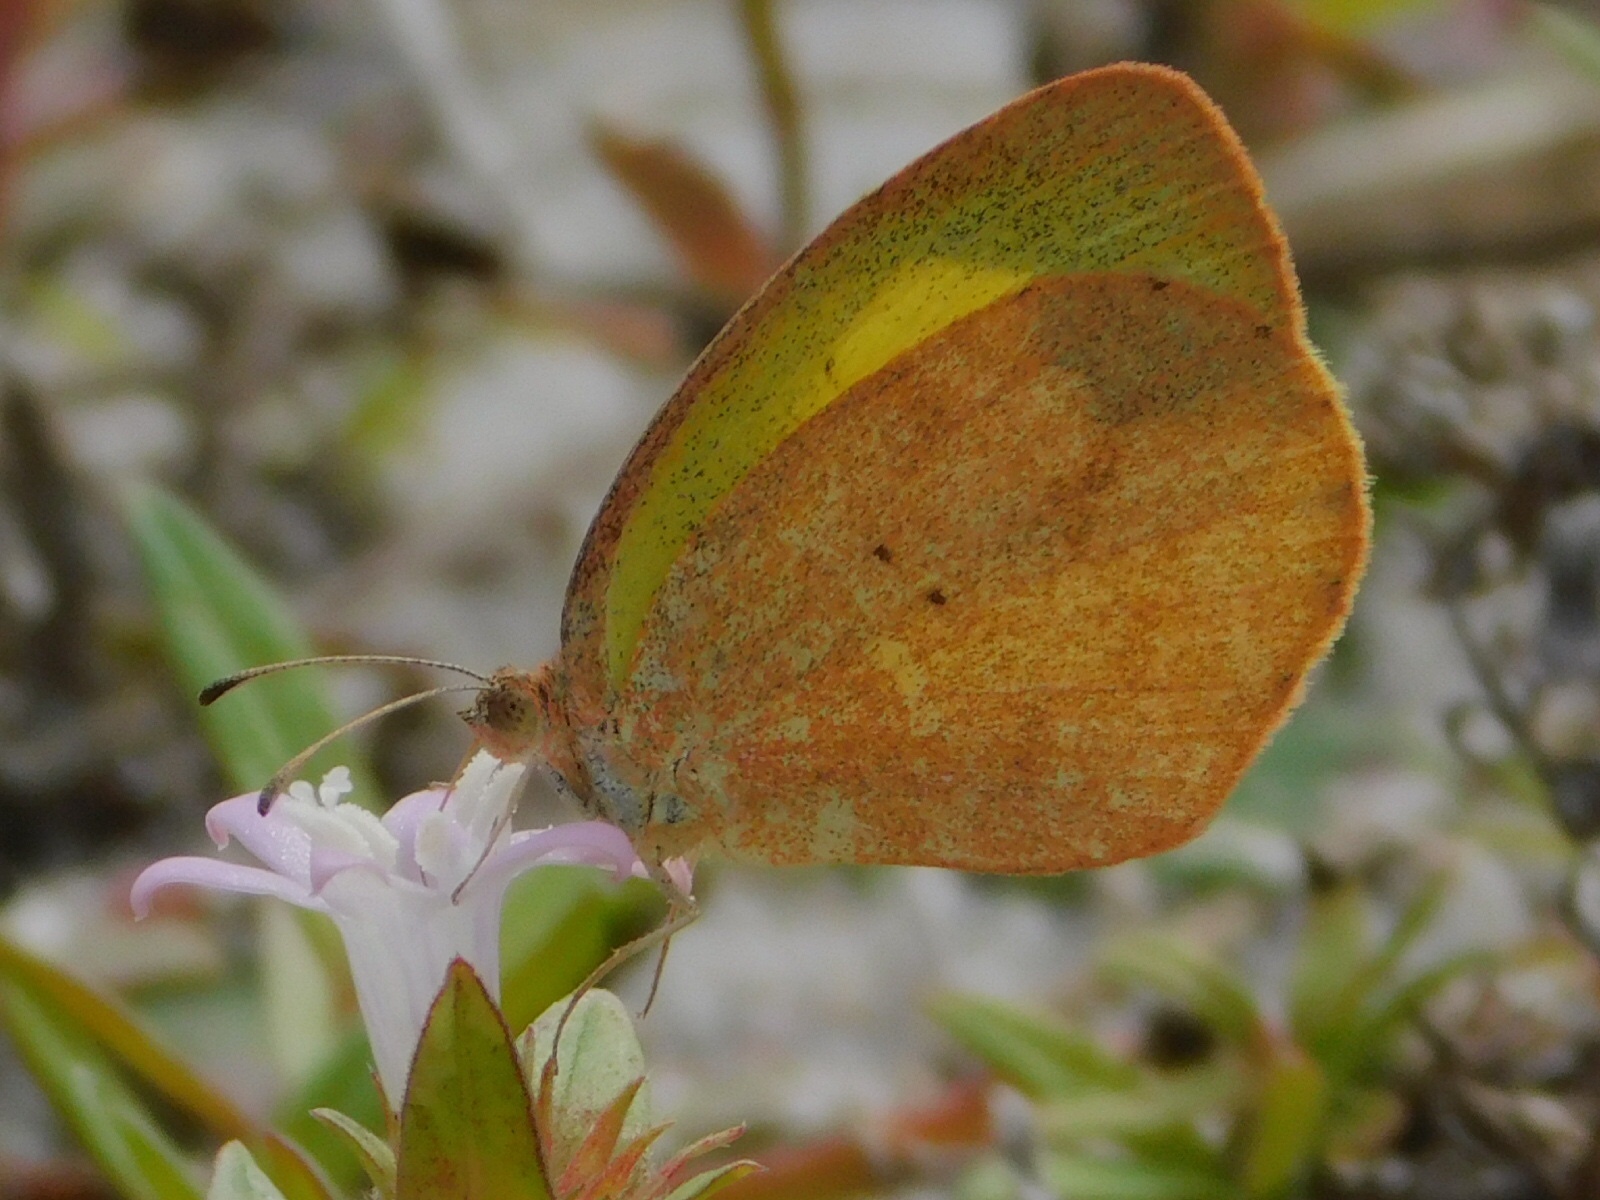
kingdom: Animalia
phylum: Arthropoda
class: Insecta
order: Lepidoptera
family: Pieridae
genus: Eurema
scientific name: Eurema daira
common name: Barred sulphur
